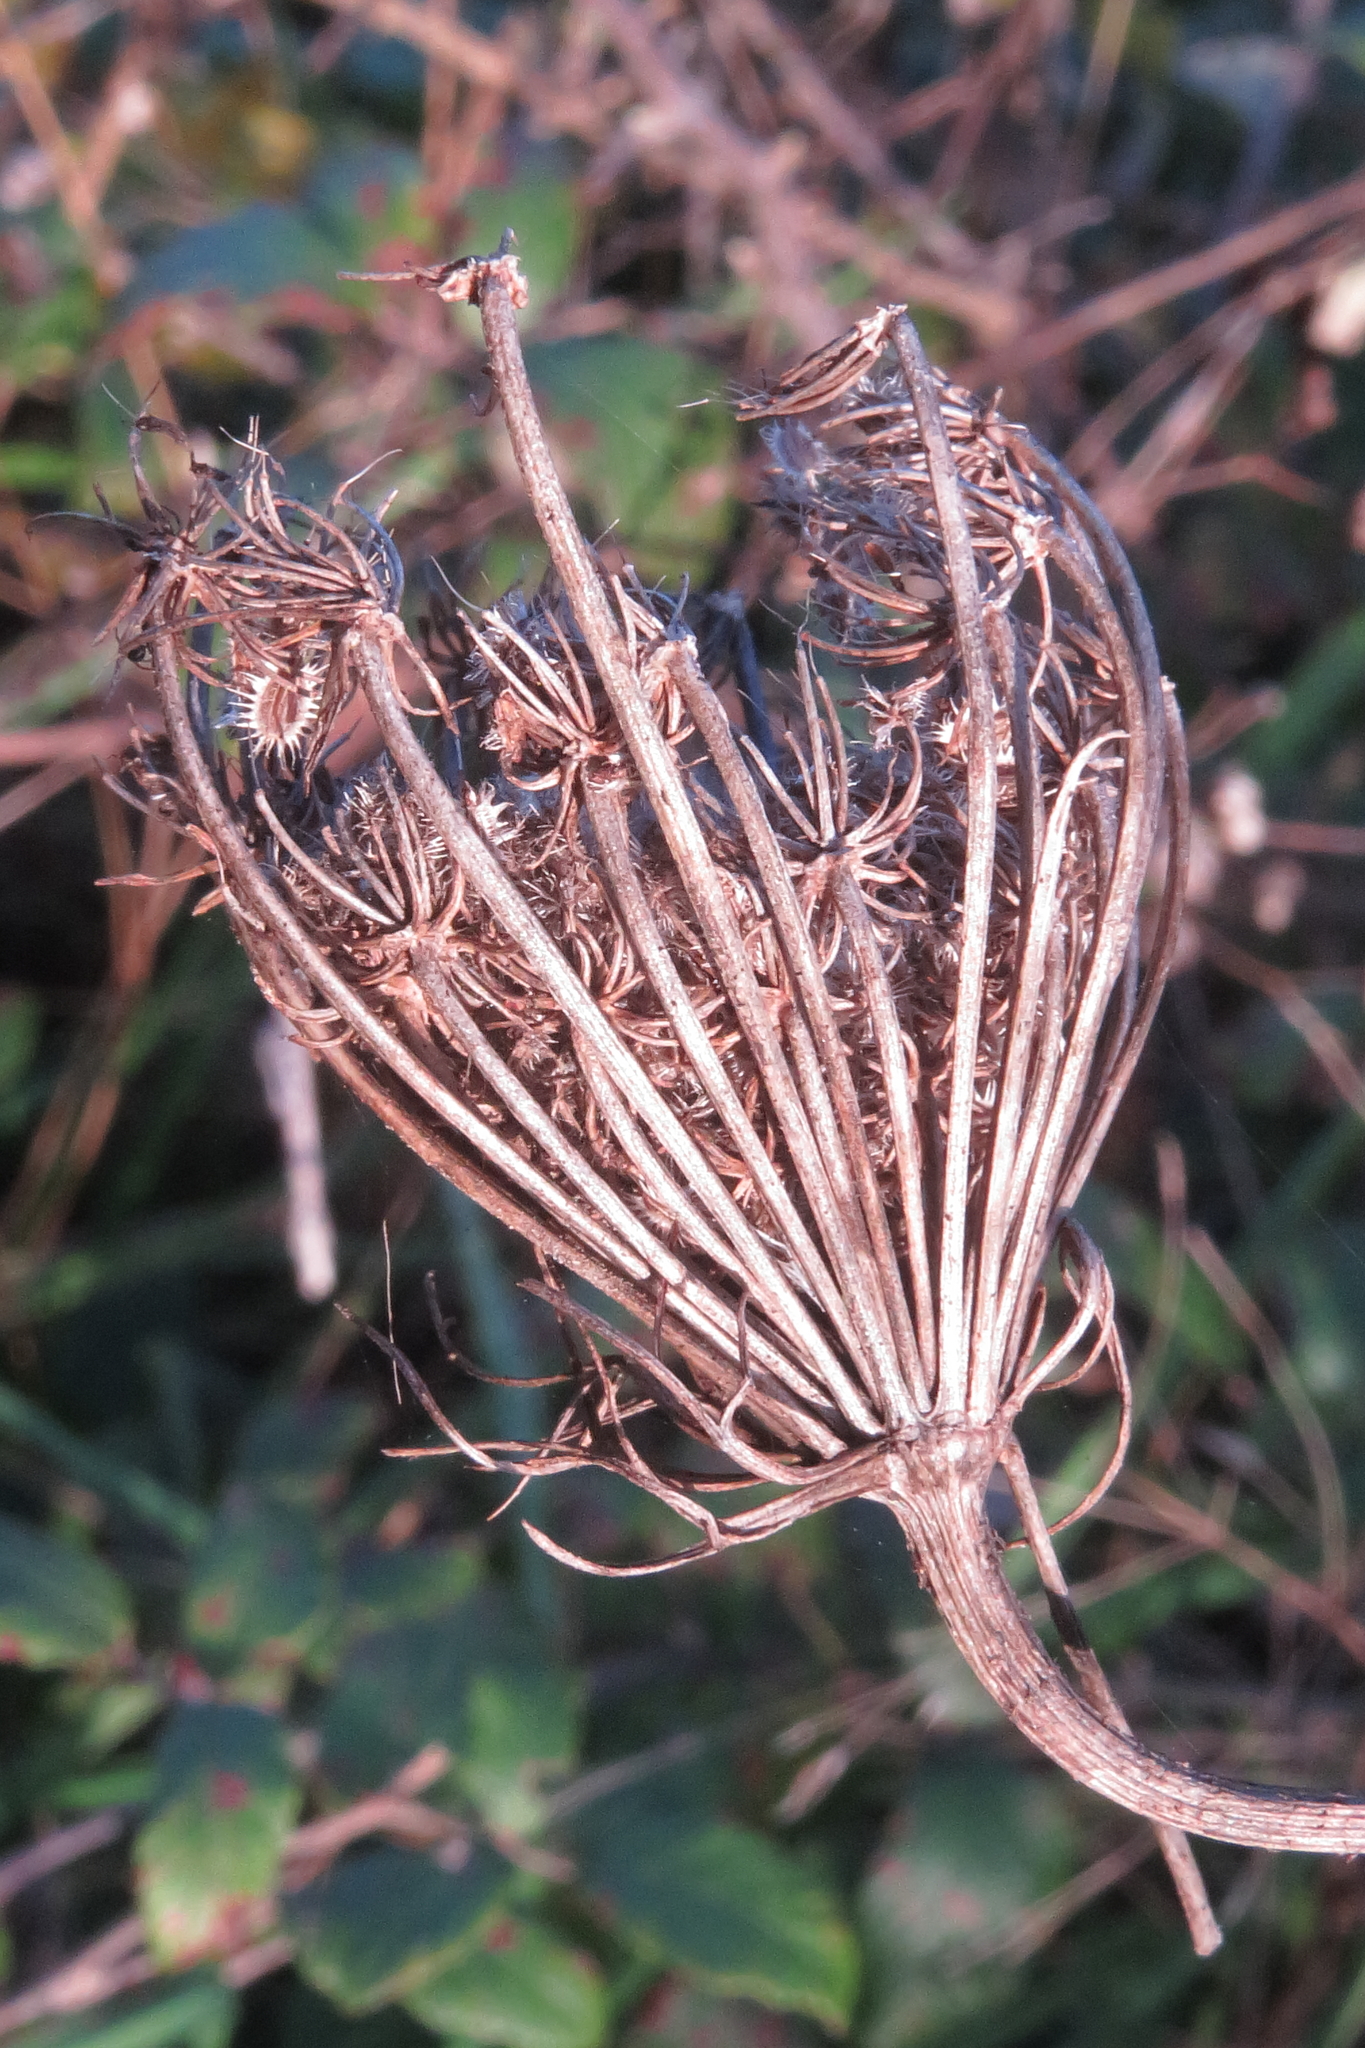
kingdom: Plantae
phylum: Tracheophyta
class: Magnoliopsida
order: Apiales
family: Apiaceae
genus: Daucus
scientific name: Daucus carota
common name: Wild carrot
